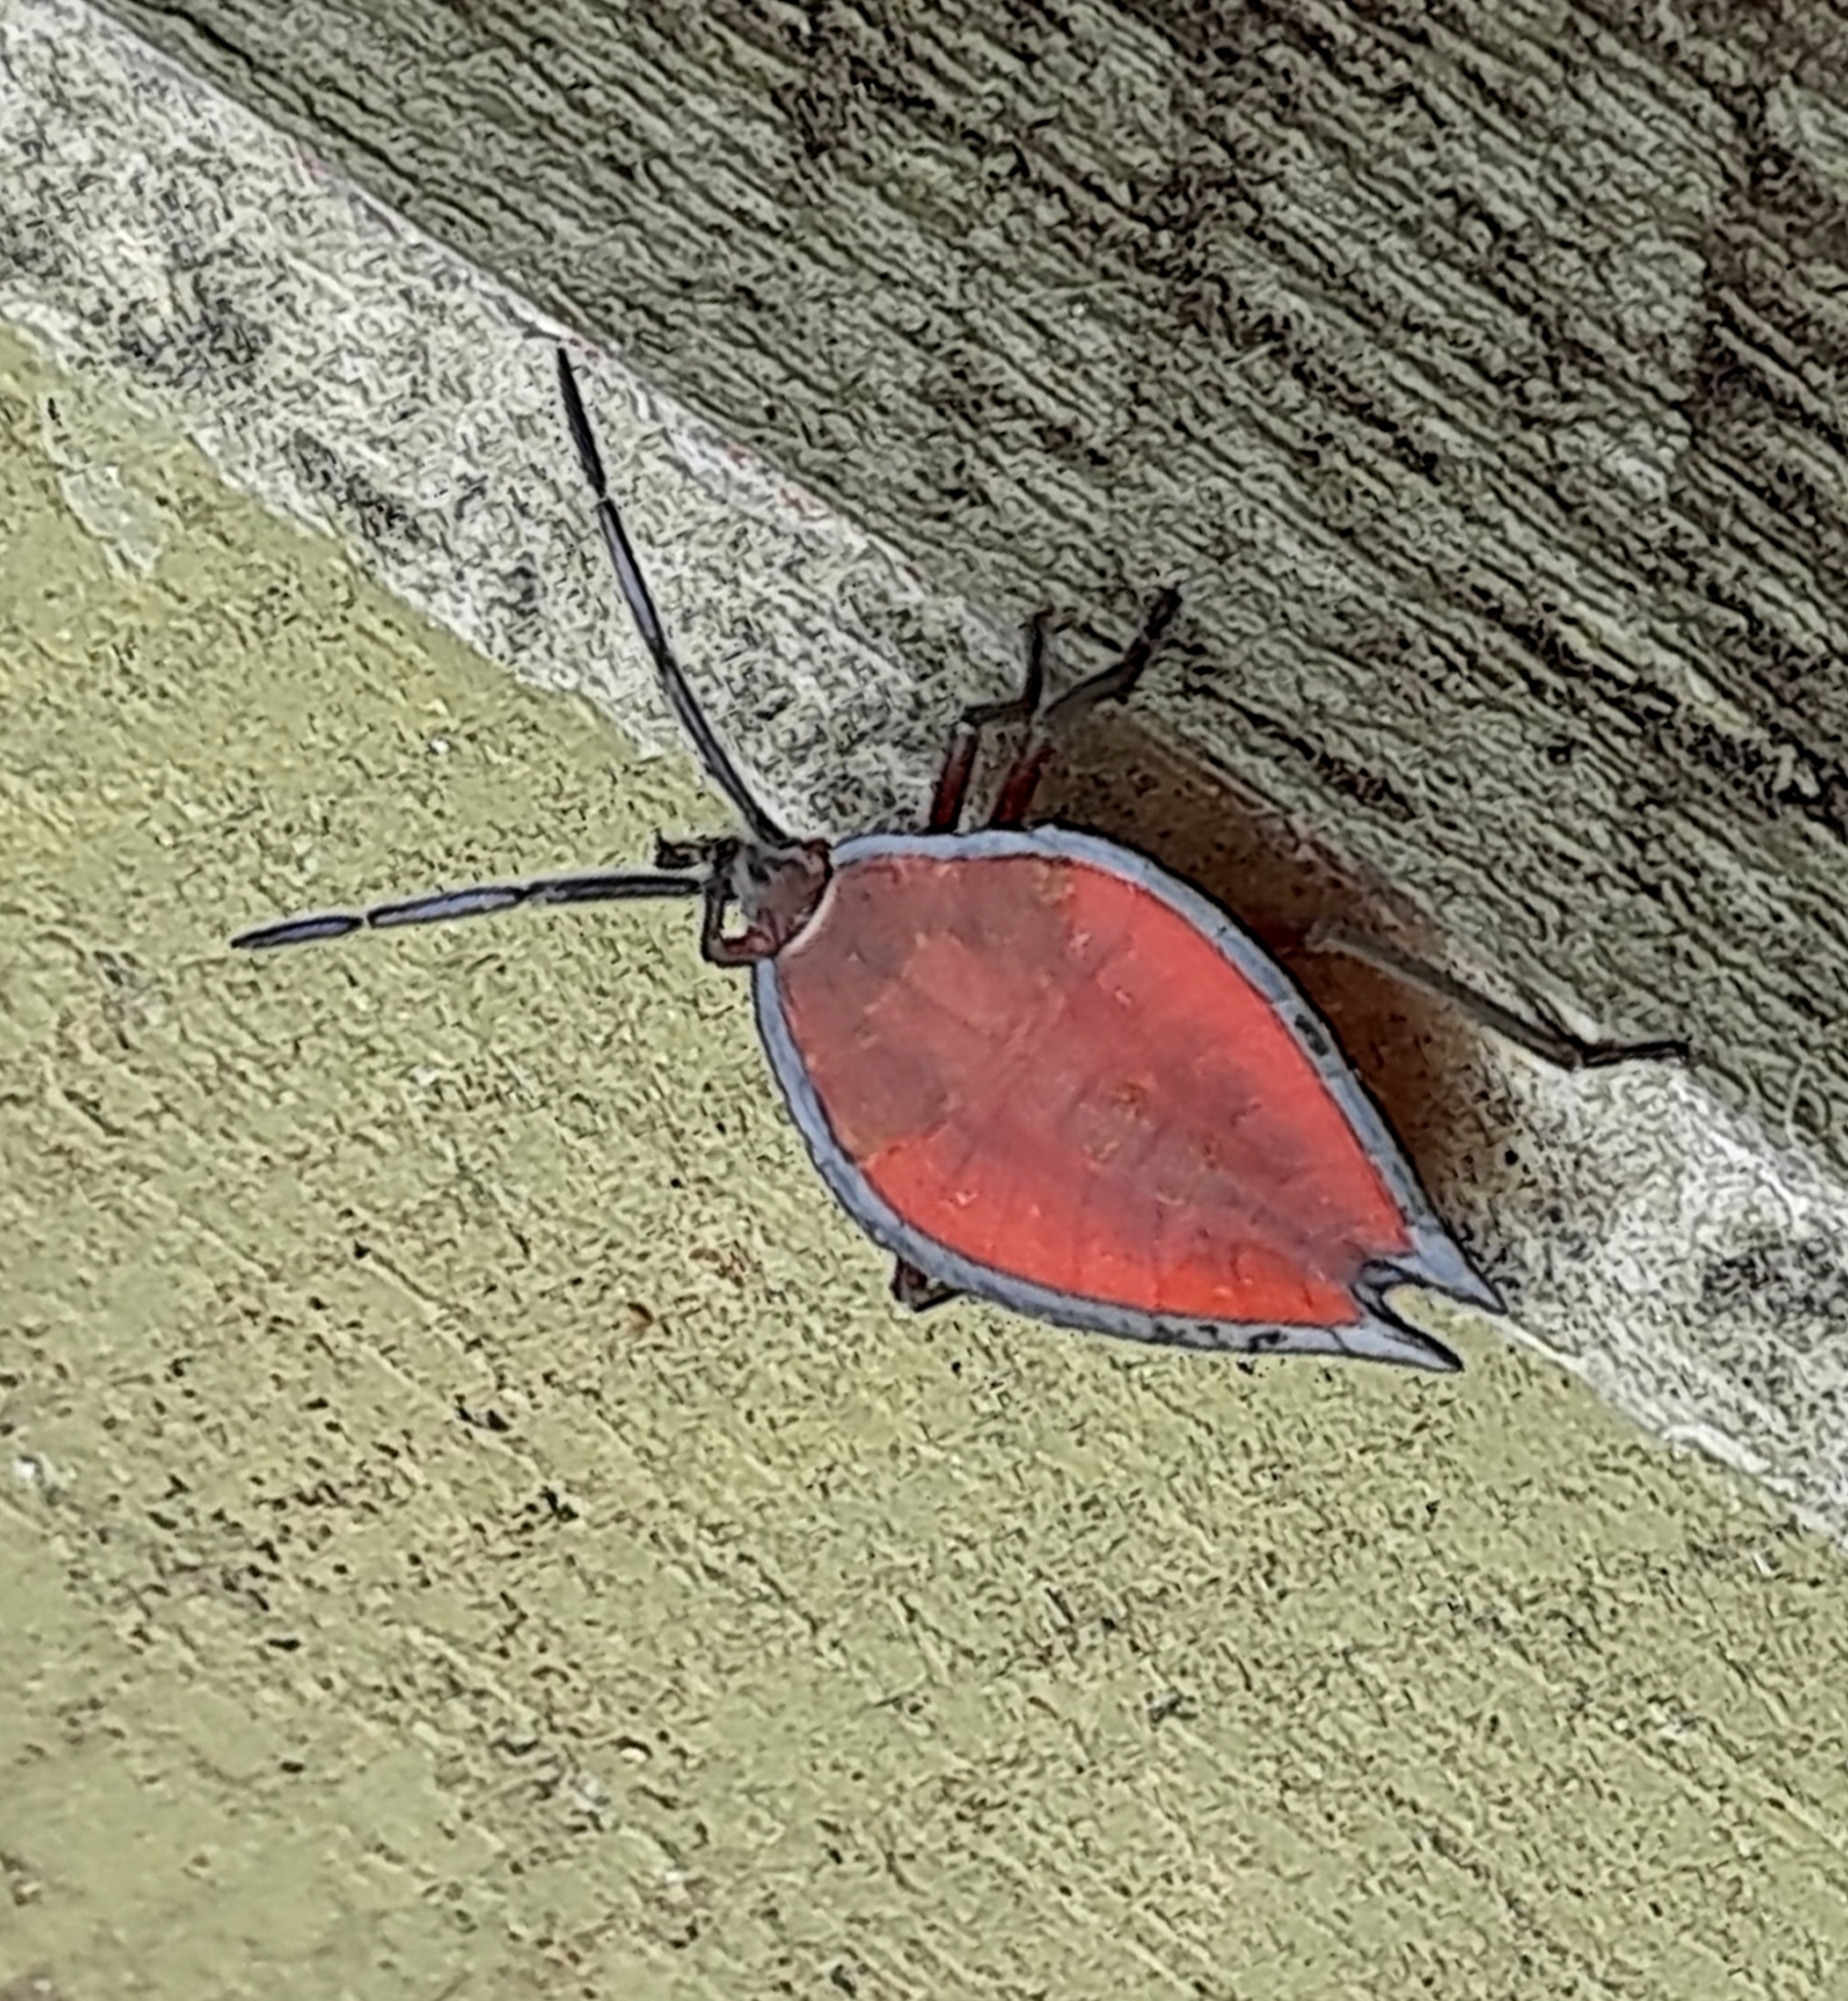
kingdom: Animalia
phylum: Arthropoda
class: Insecta
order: Hemiptera
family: Tessaratomidae
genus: Lyramorpha
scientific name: Lyramorpha rosea
